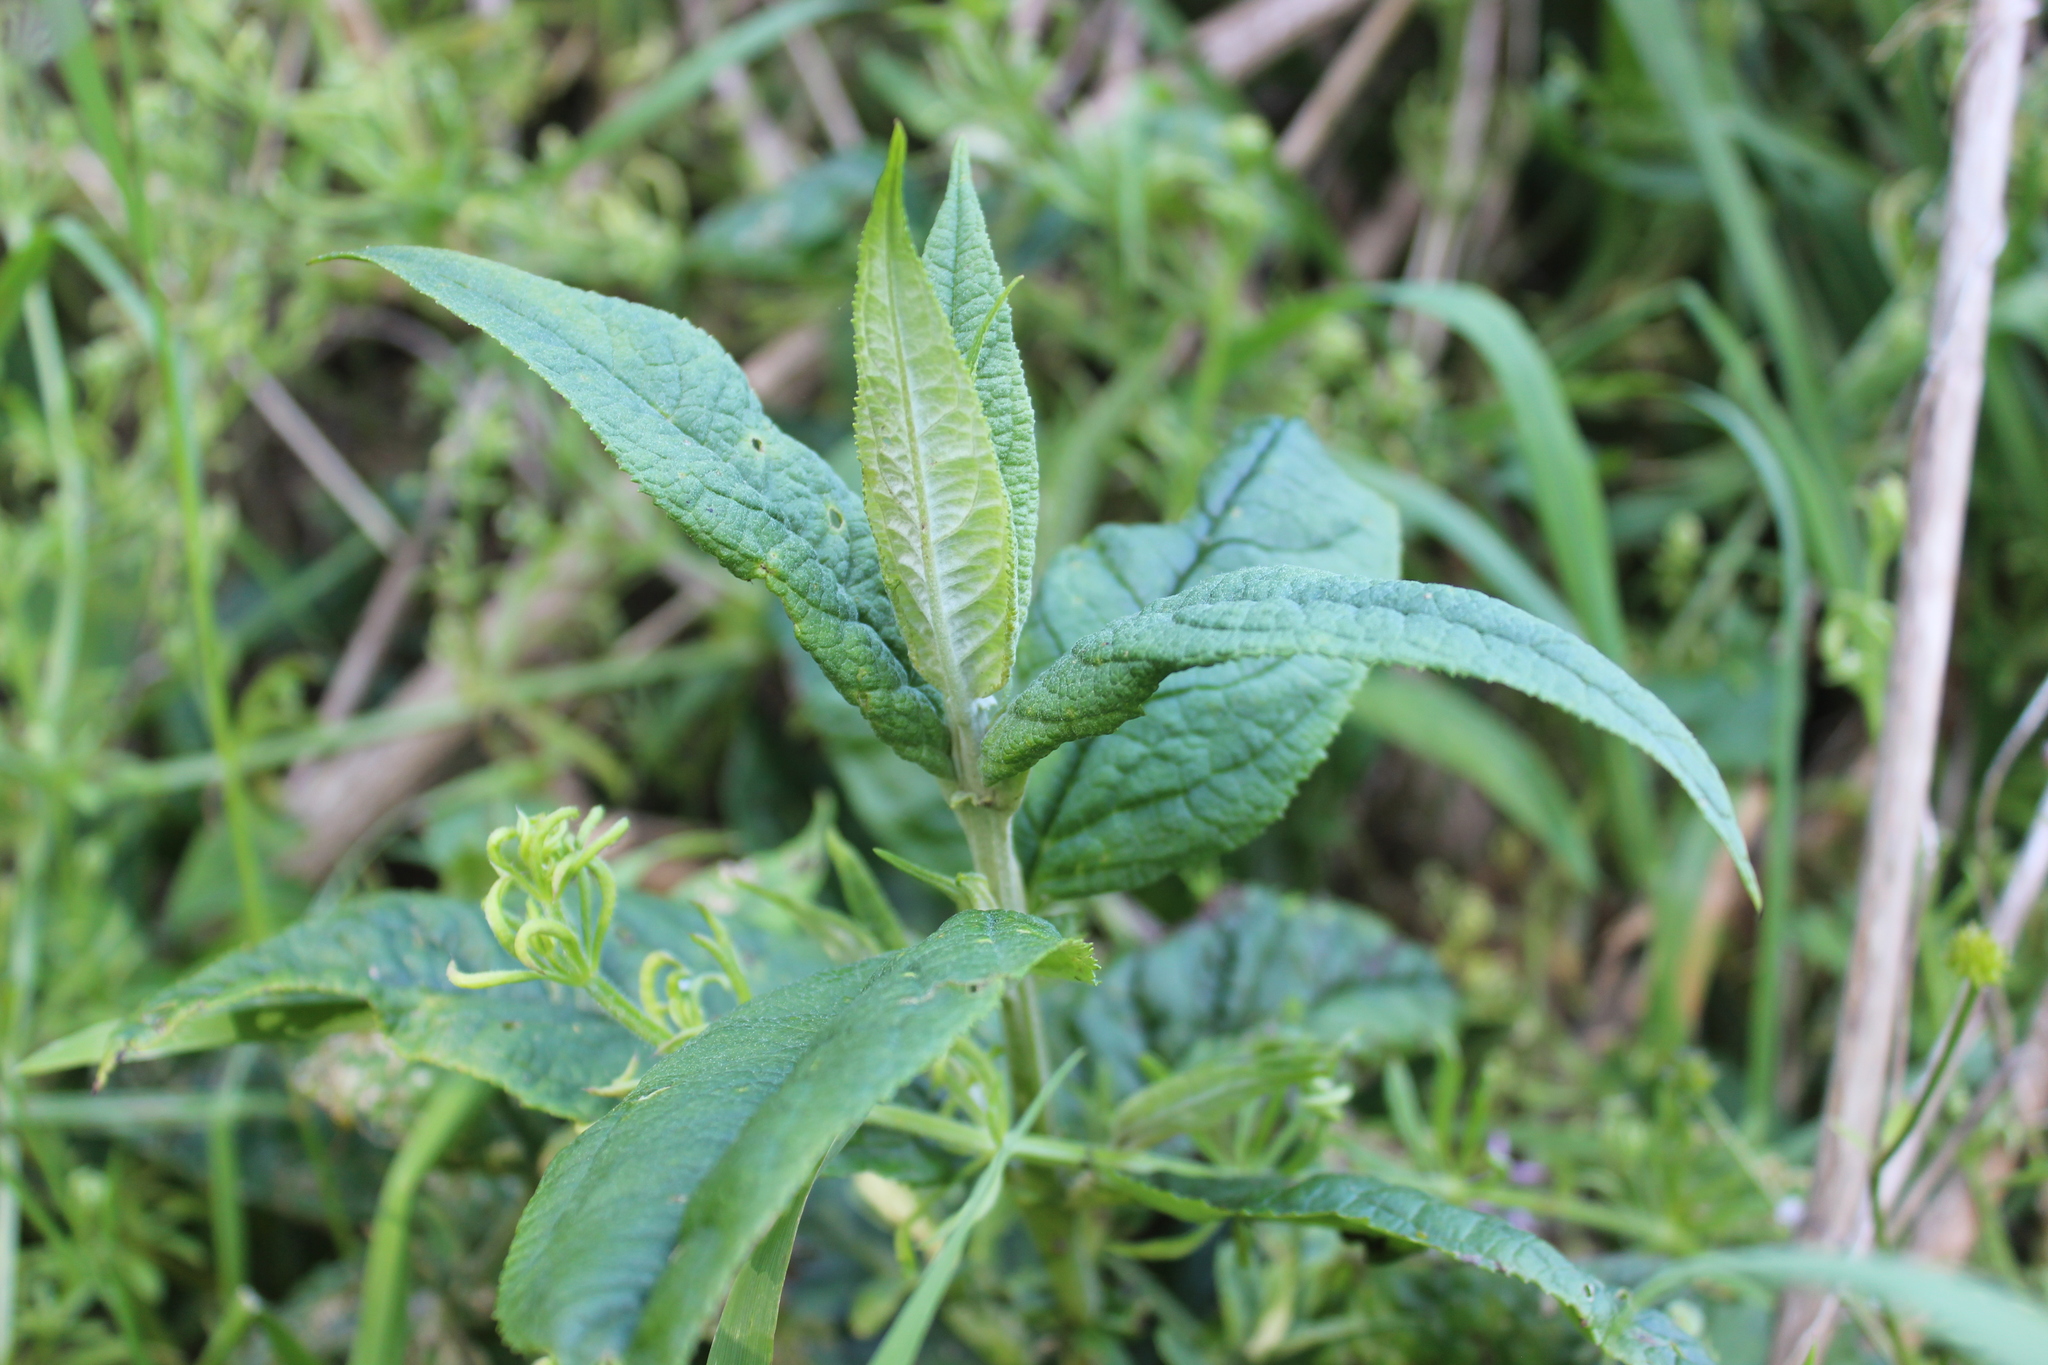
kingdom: Plantae
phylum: Tracheophyta
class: Magnoliopsida
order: Lamiales
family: Scrophulariaceae
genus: Buddleja
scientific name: Buddleja davidii
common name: Butterfly-bush
